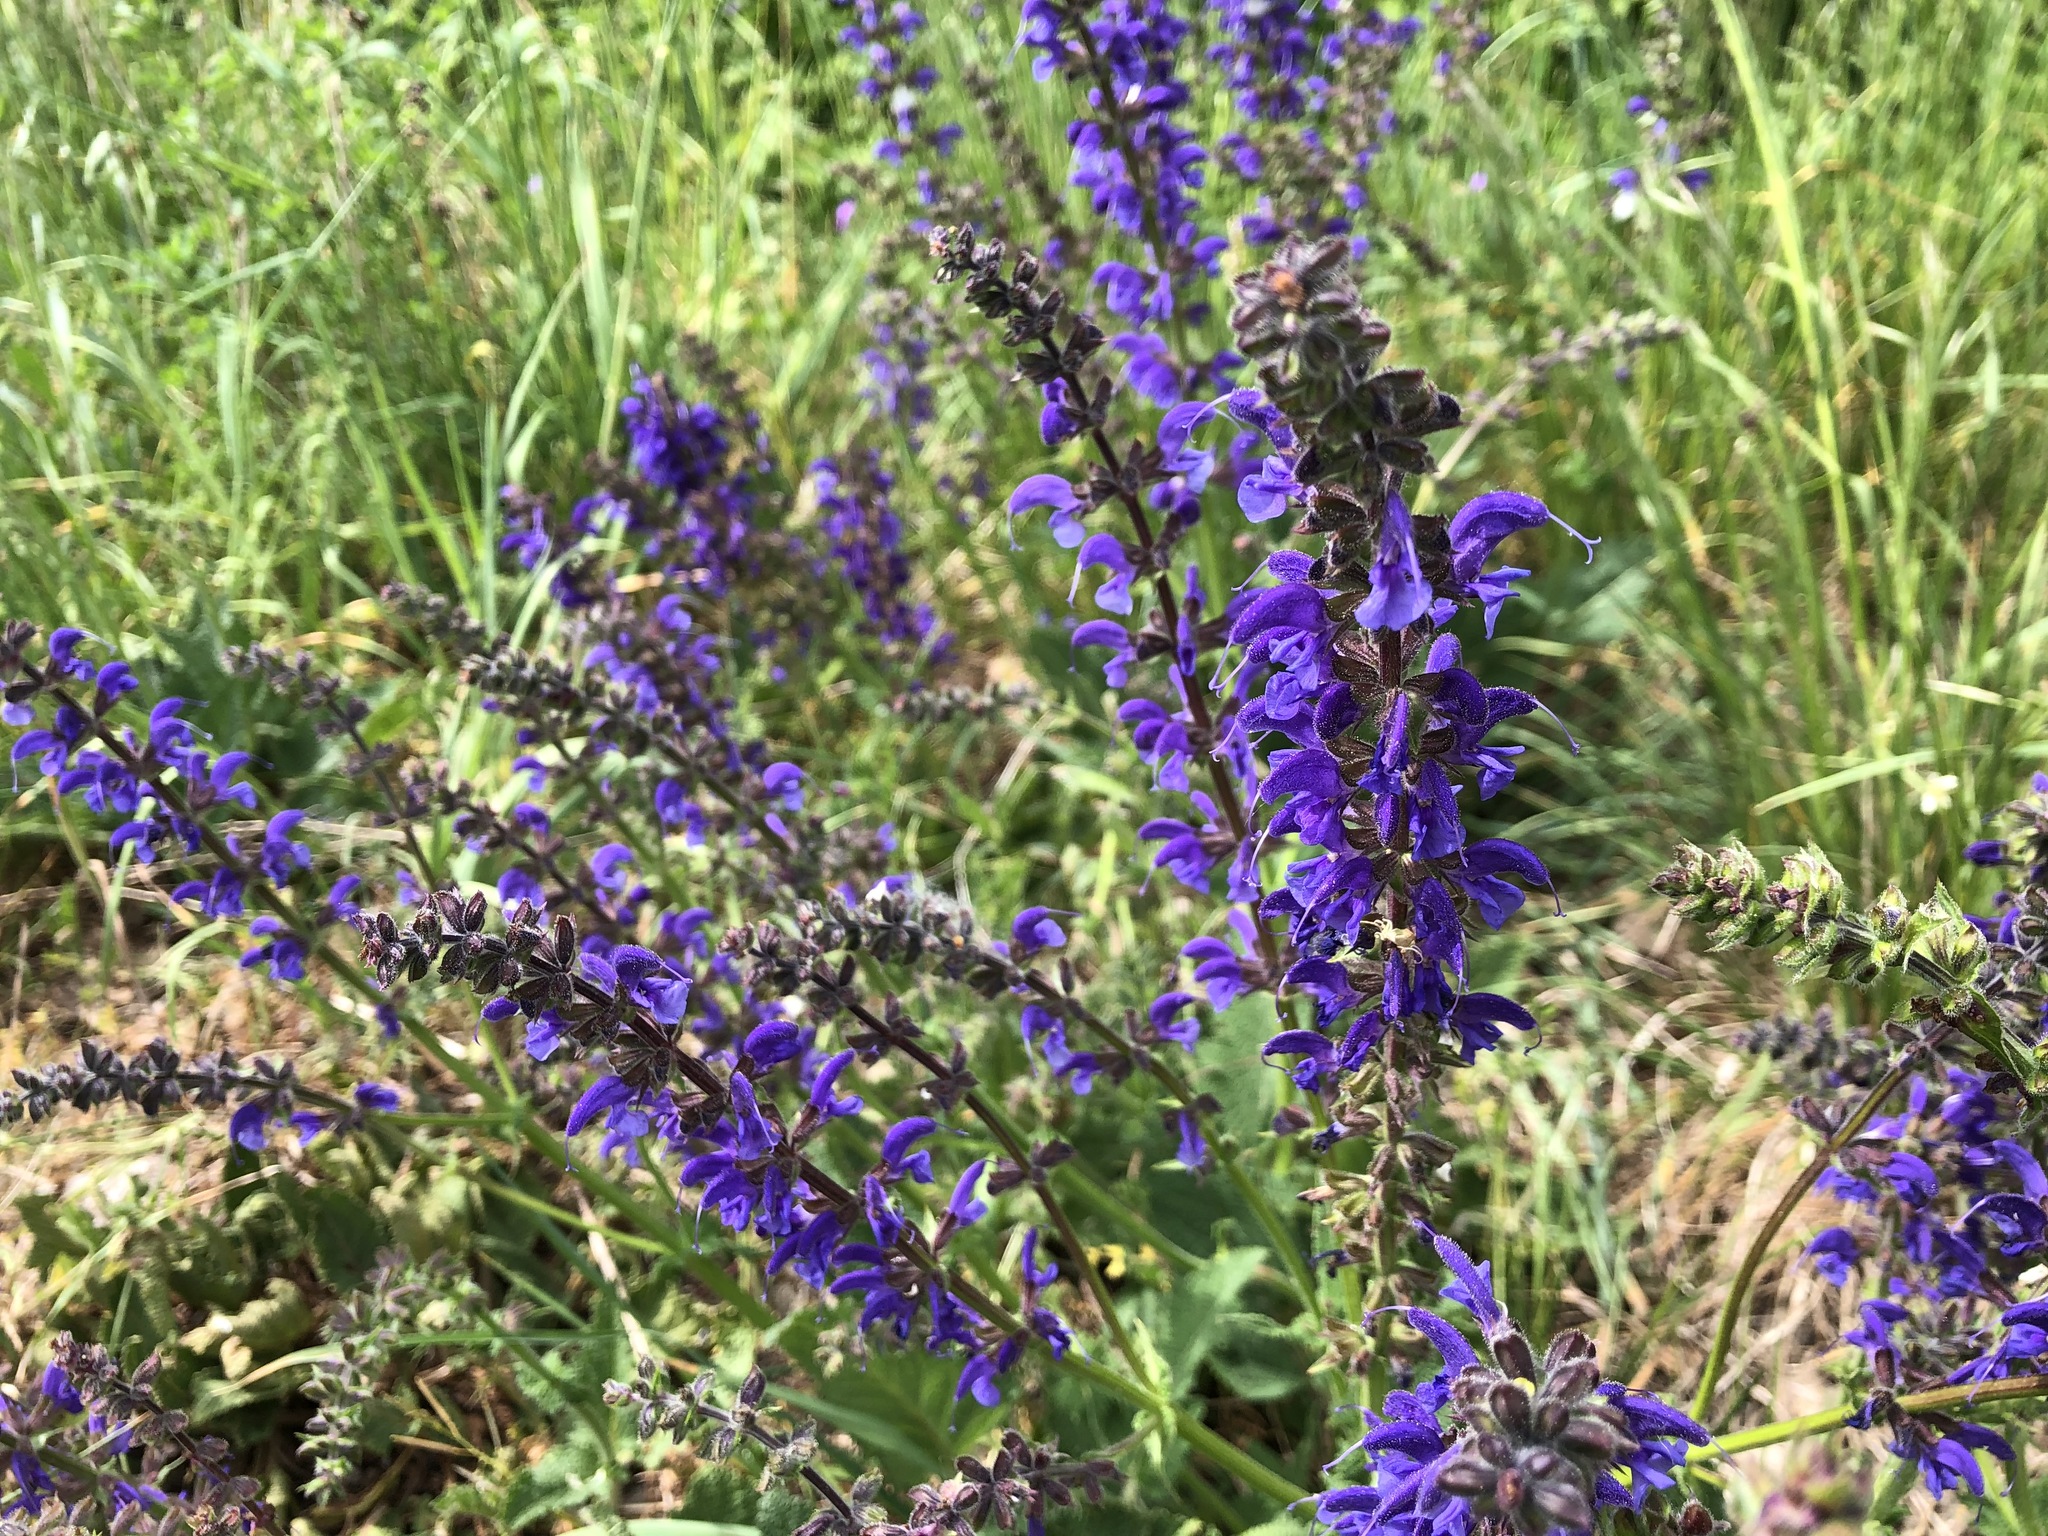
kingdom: Plantae
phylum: Tracheophyta
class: Magnoliopsida
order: Lamiales
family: Lamiaceae
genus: Salvia
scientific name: Salvia pratensis
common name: Meadow sage
